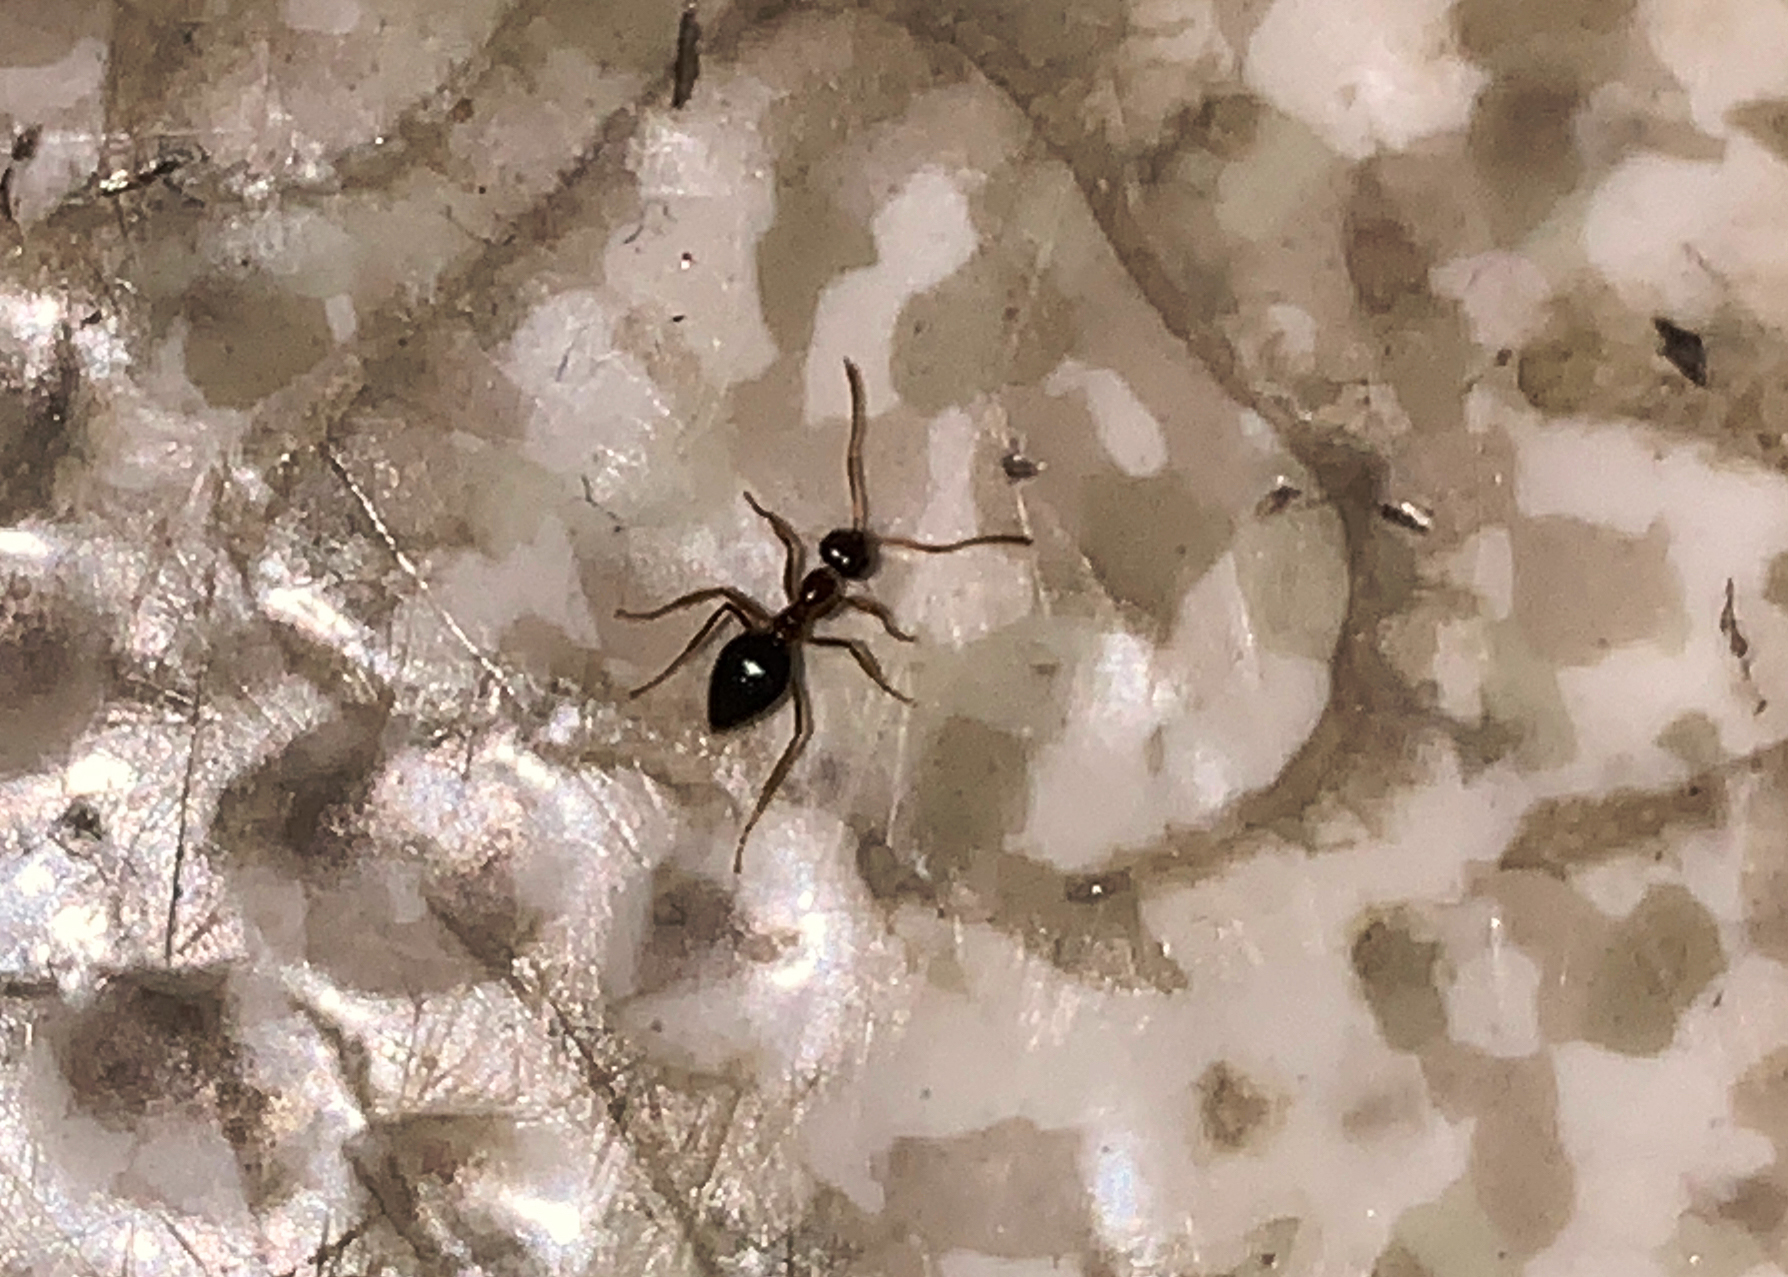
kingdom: Animalia
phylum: Arthropoda
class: Insecta
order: Hymenoptera
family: Formicidae
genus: Prenolepis
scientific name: Prenolepis imparis
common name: Small honey ant
